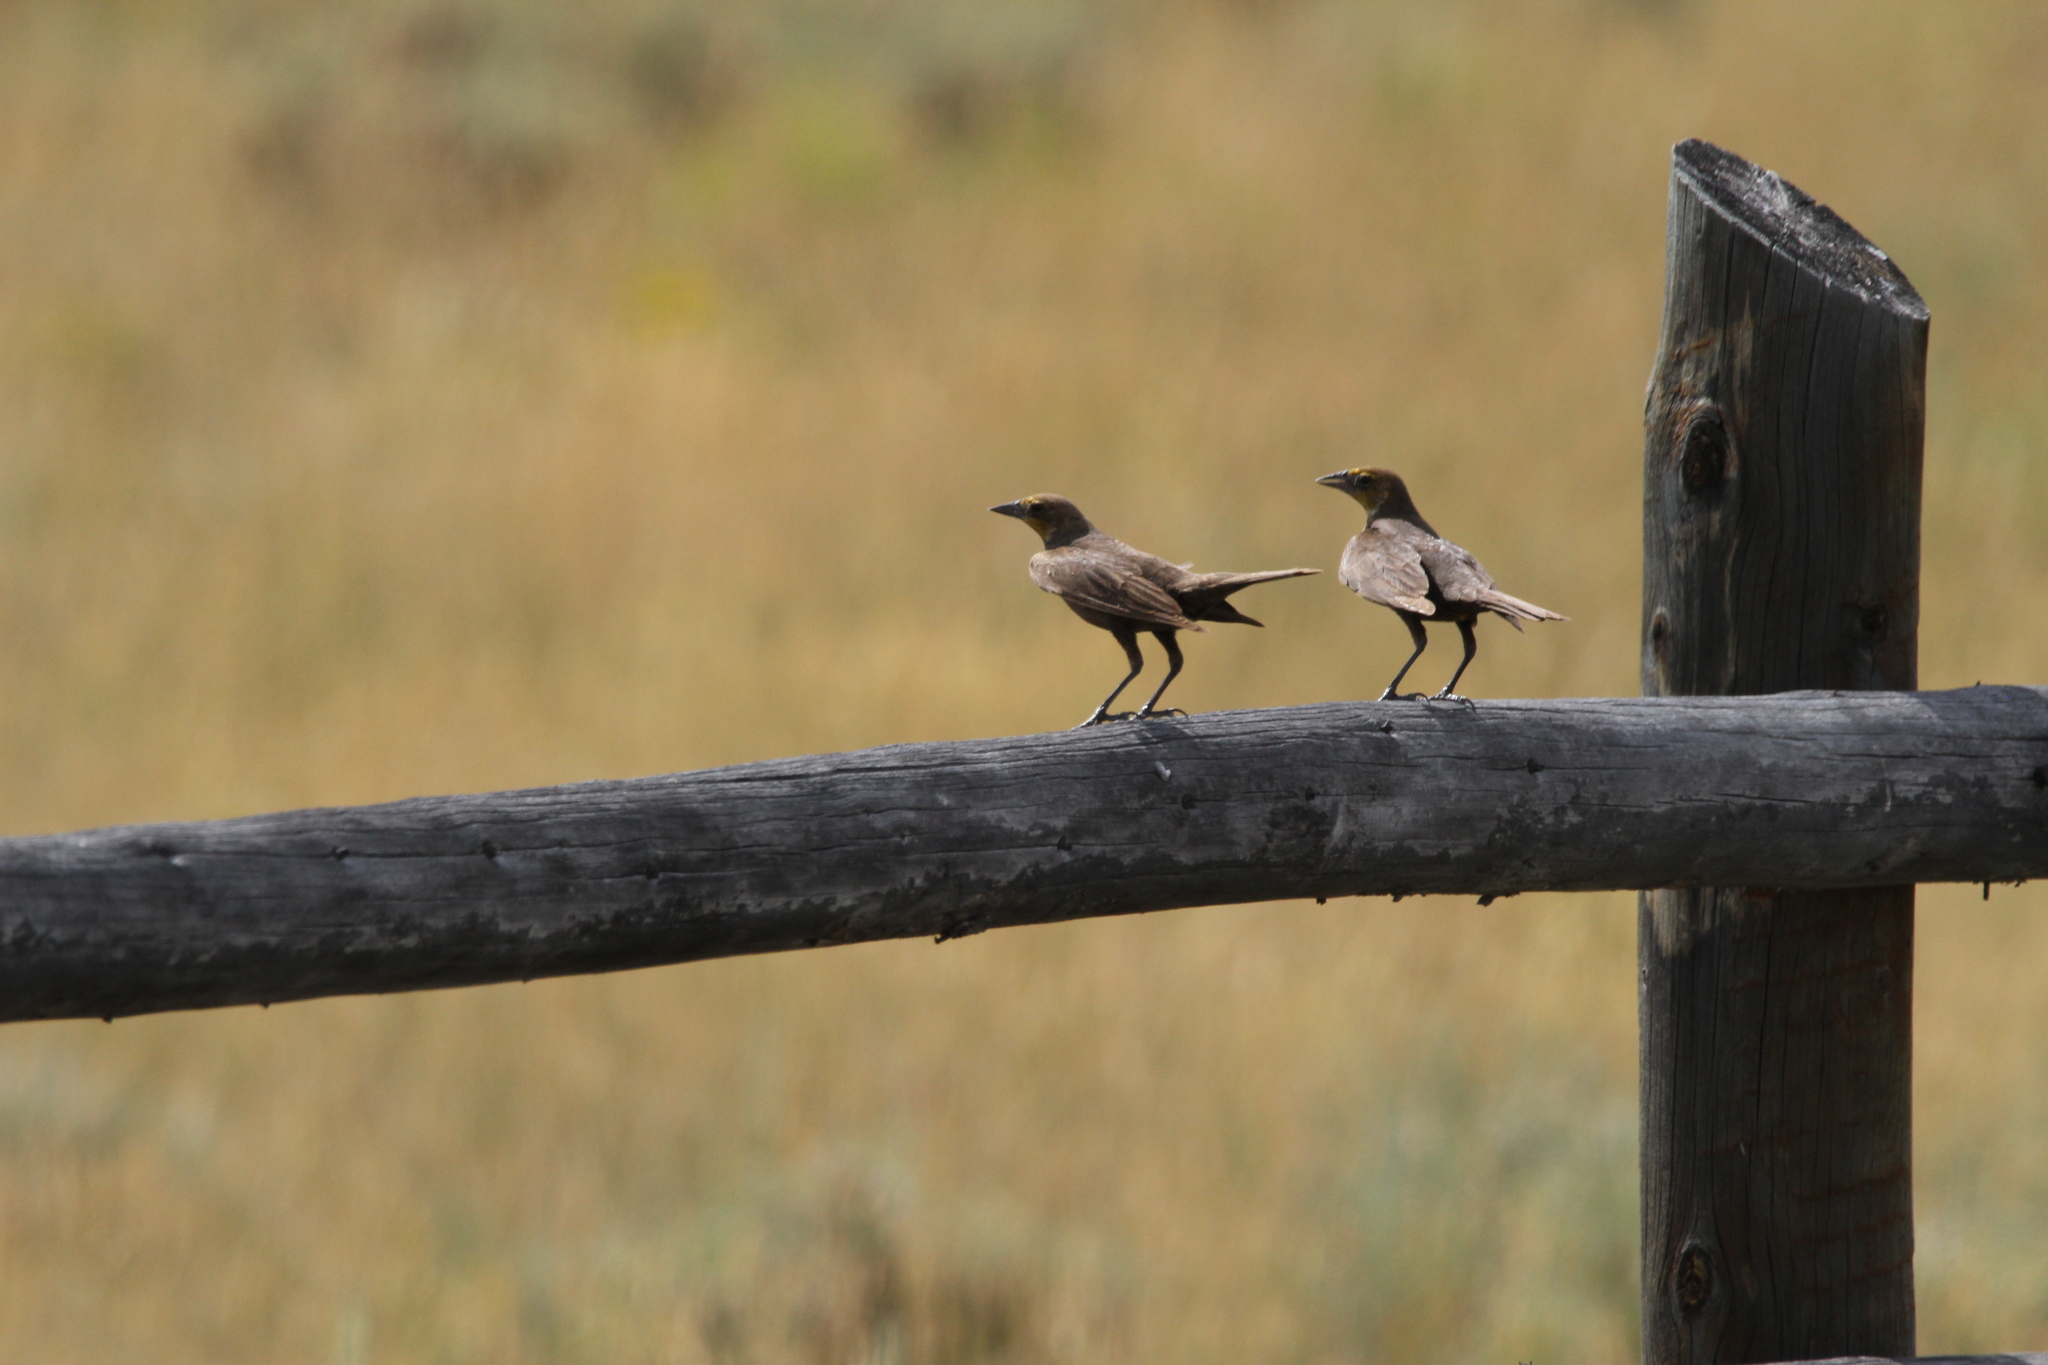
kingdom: Animalia
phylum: Chordata
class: Aves
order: Passeriformes
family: Icteridae
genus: Xanthocephalus
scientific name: Xanthocephalus xanthocephalus
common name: Yellow-headed blackbird
